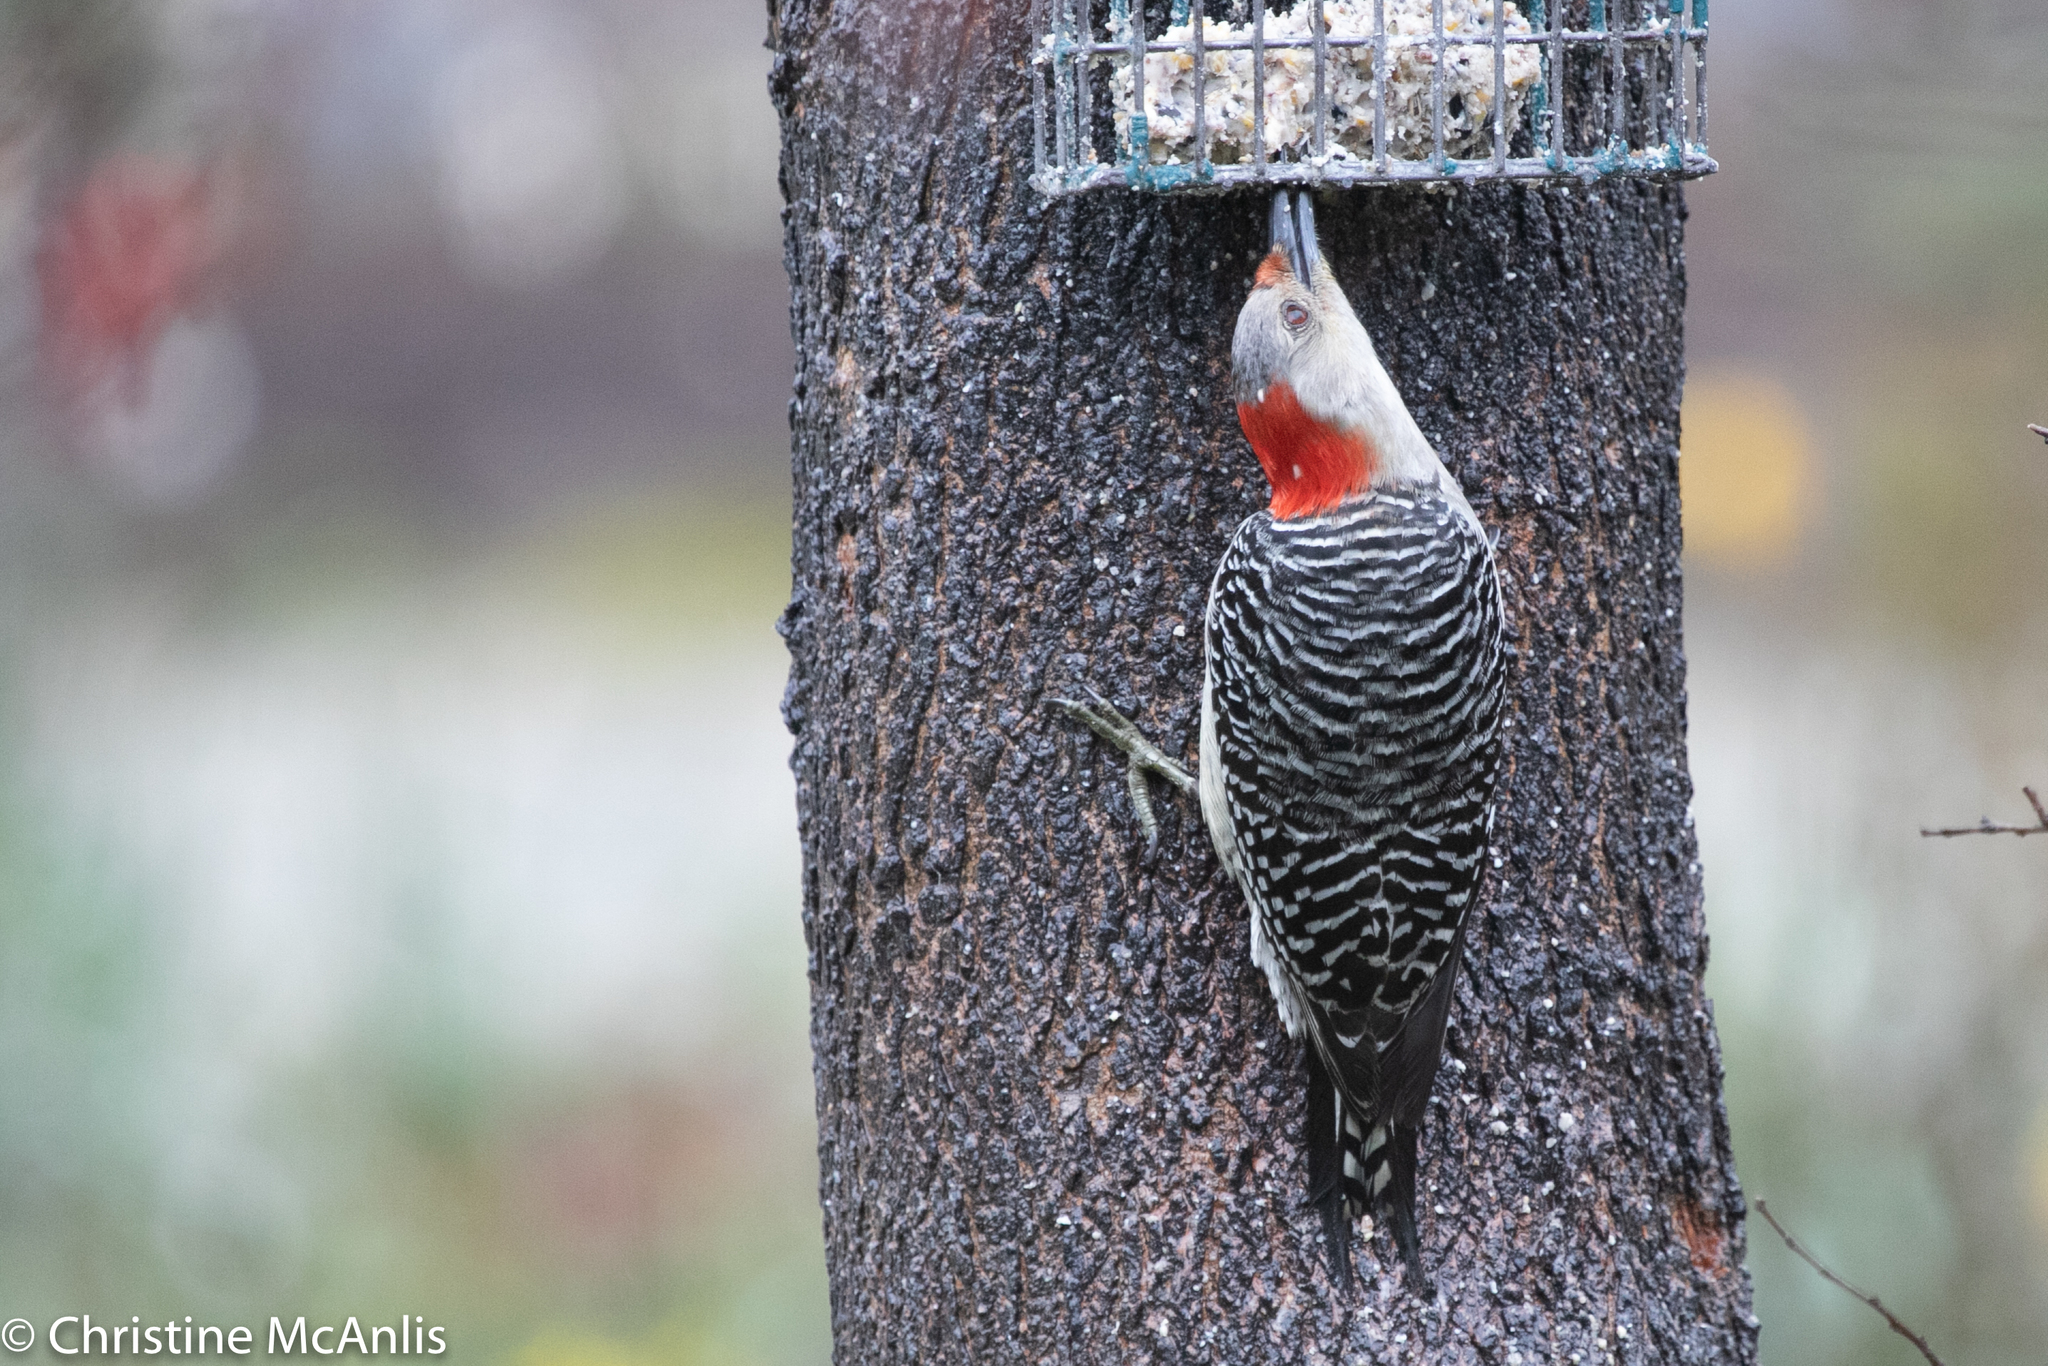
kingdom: Animalia
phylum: Chordata
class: Aves
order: Piciformes
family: Picidae
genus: Melanerpes
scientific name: Melanerpes carolinus
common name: Red-bellied woodpecker
